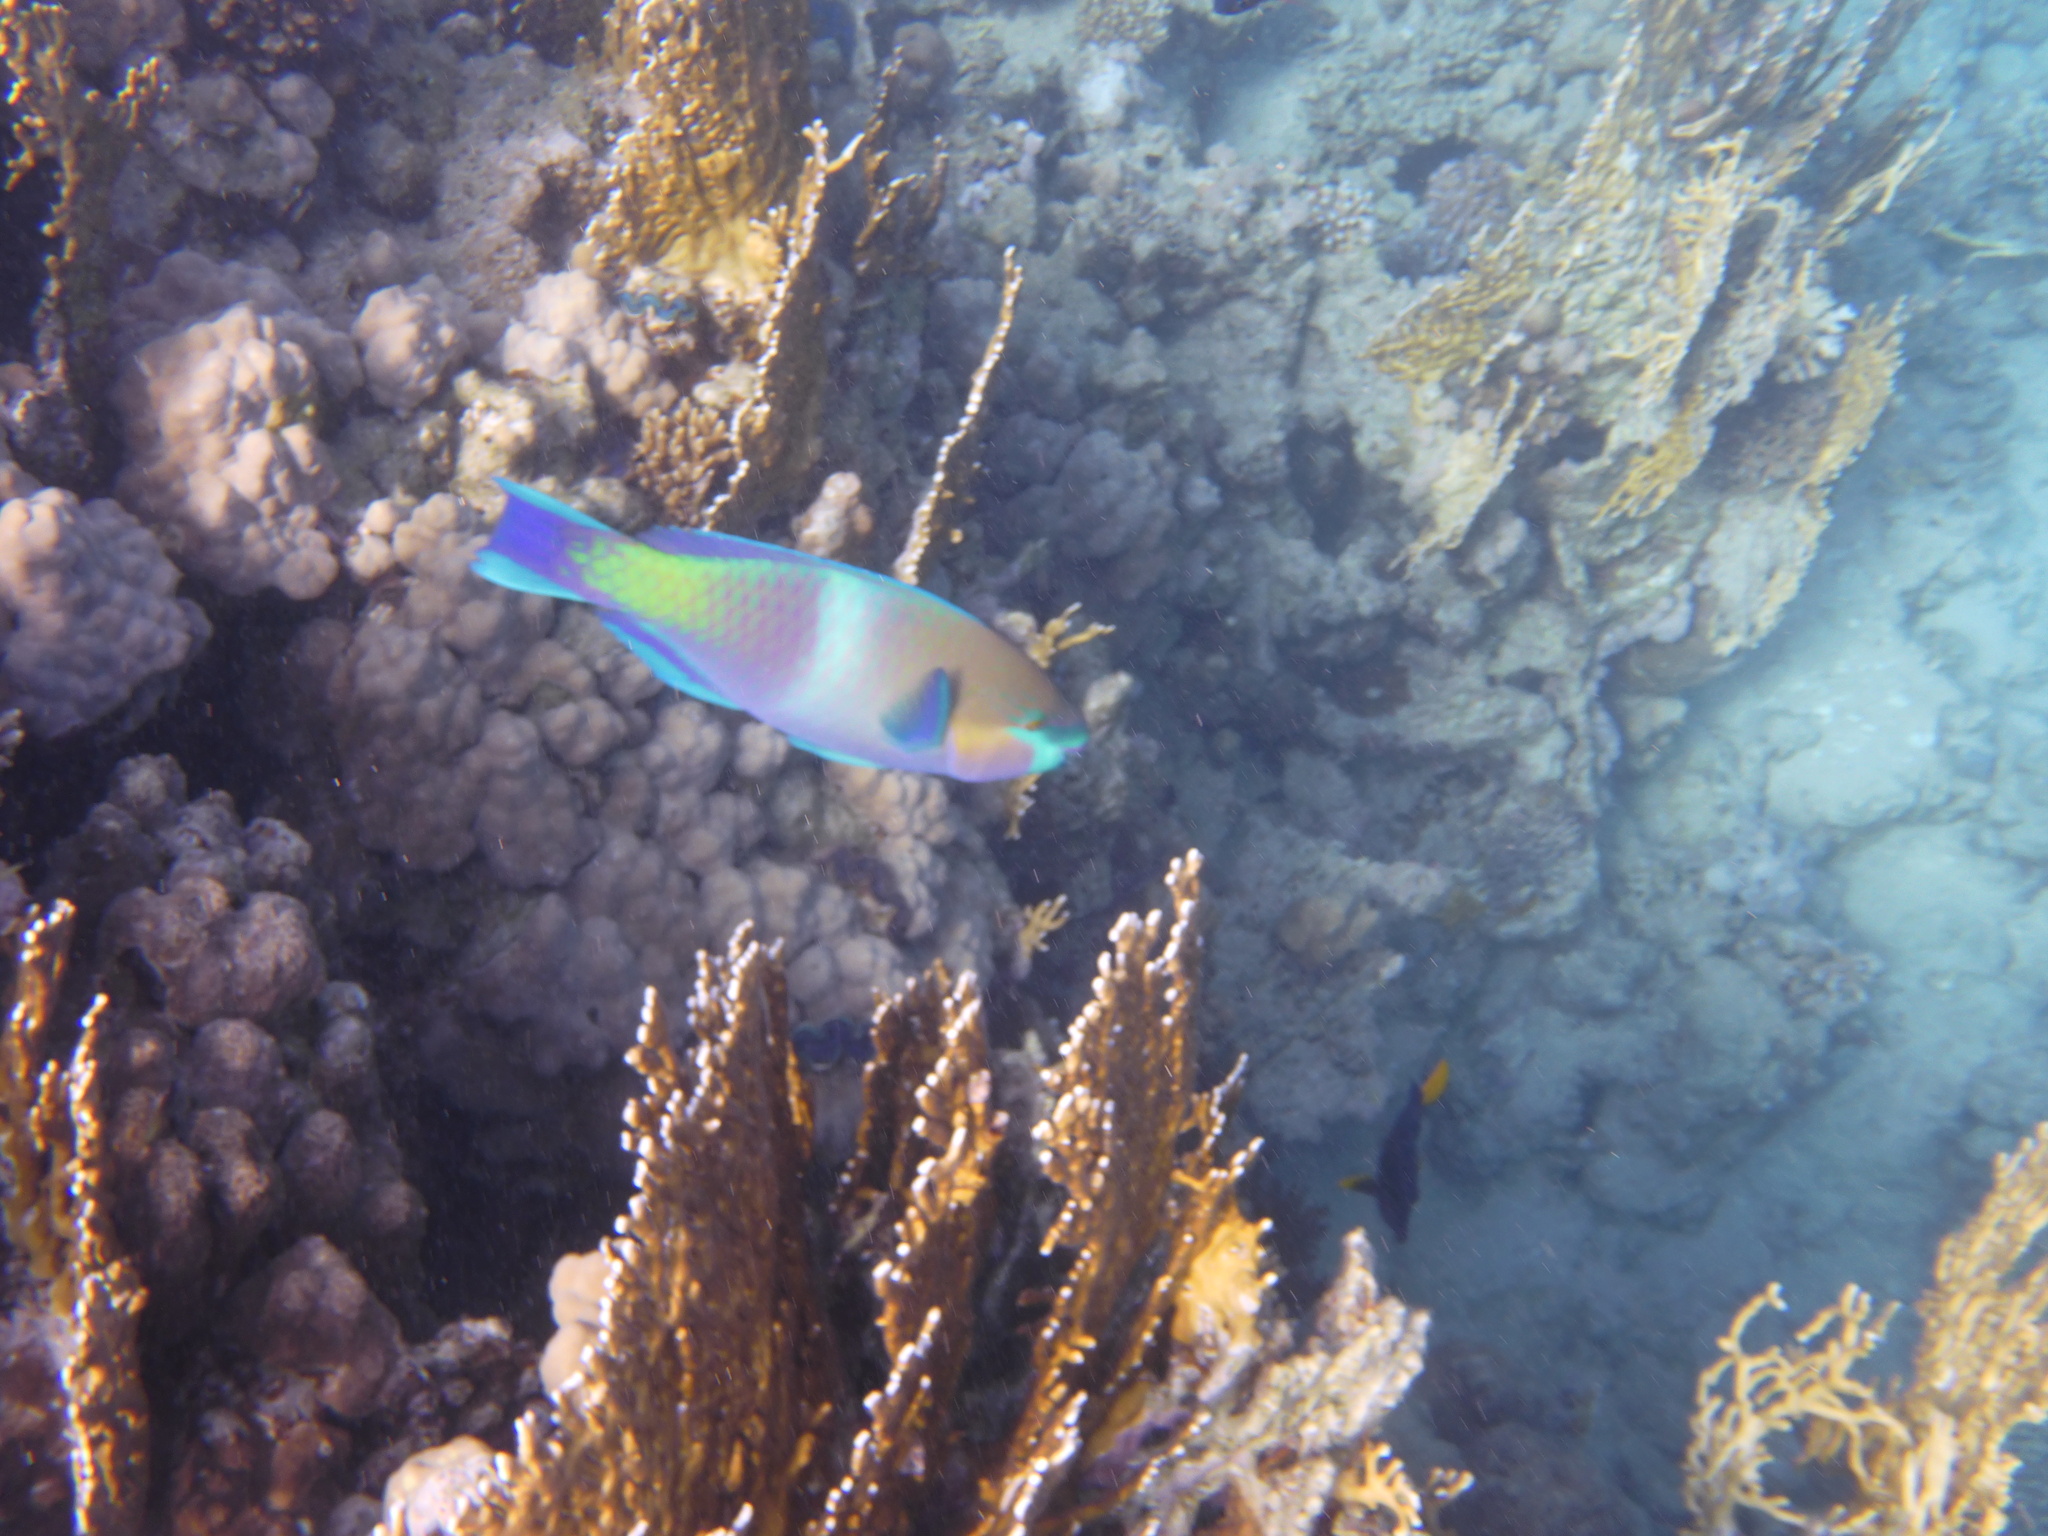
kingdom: Animalia
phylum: Chordata
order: Perciformes
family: Scaridae
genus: Scarus
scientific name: Scarus ferrugineus
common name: Rusty parrotfish
